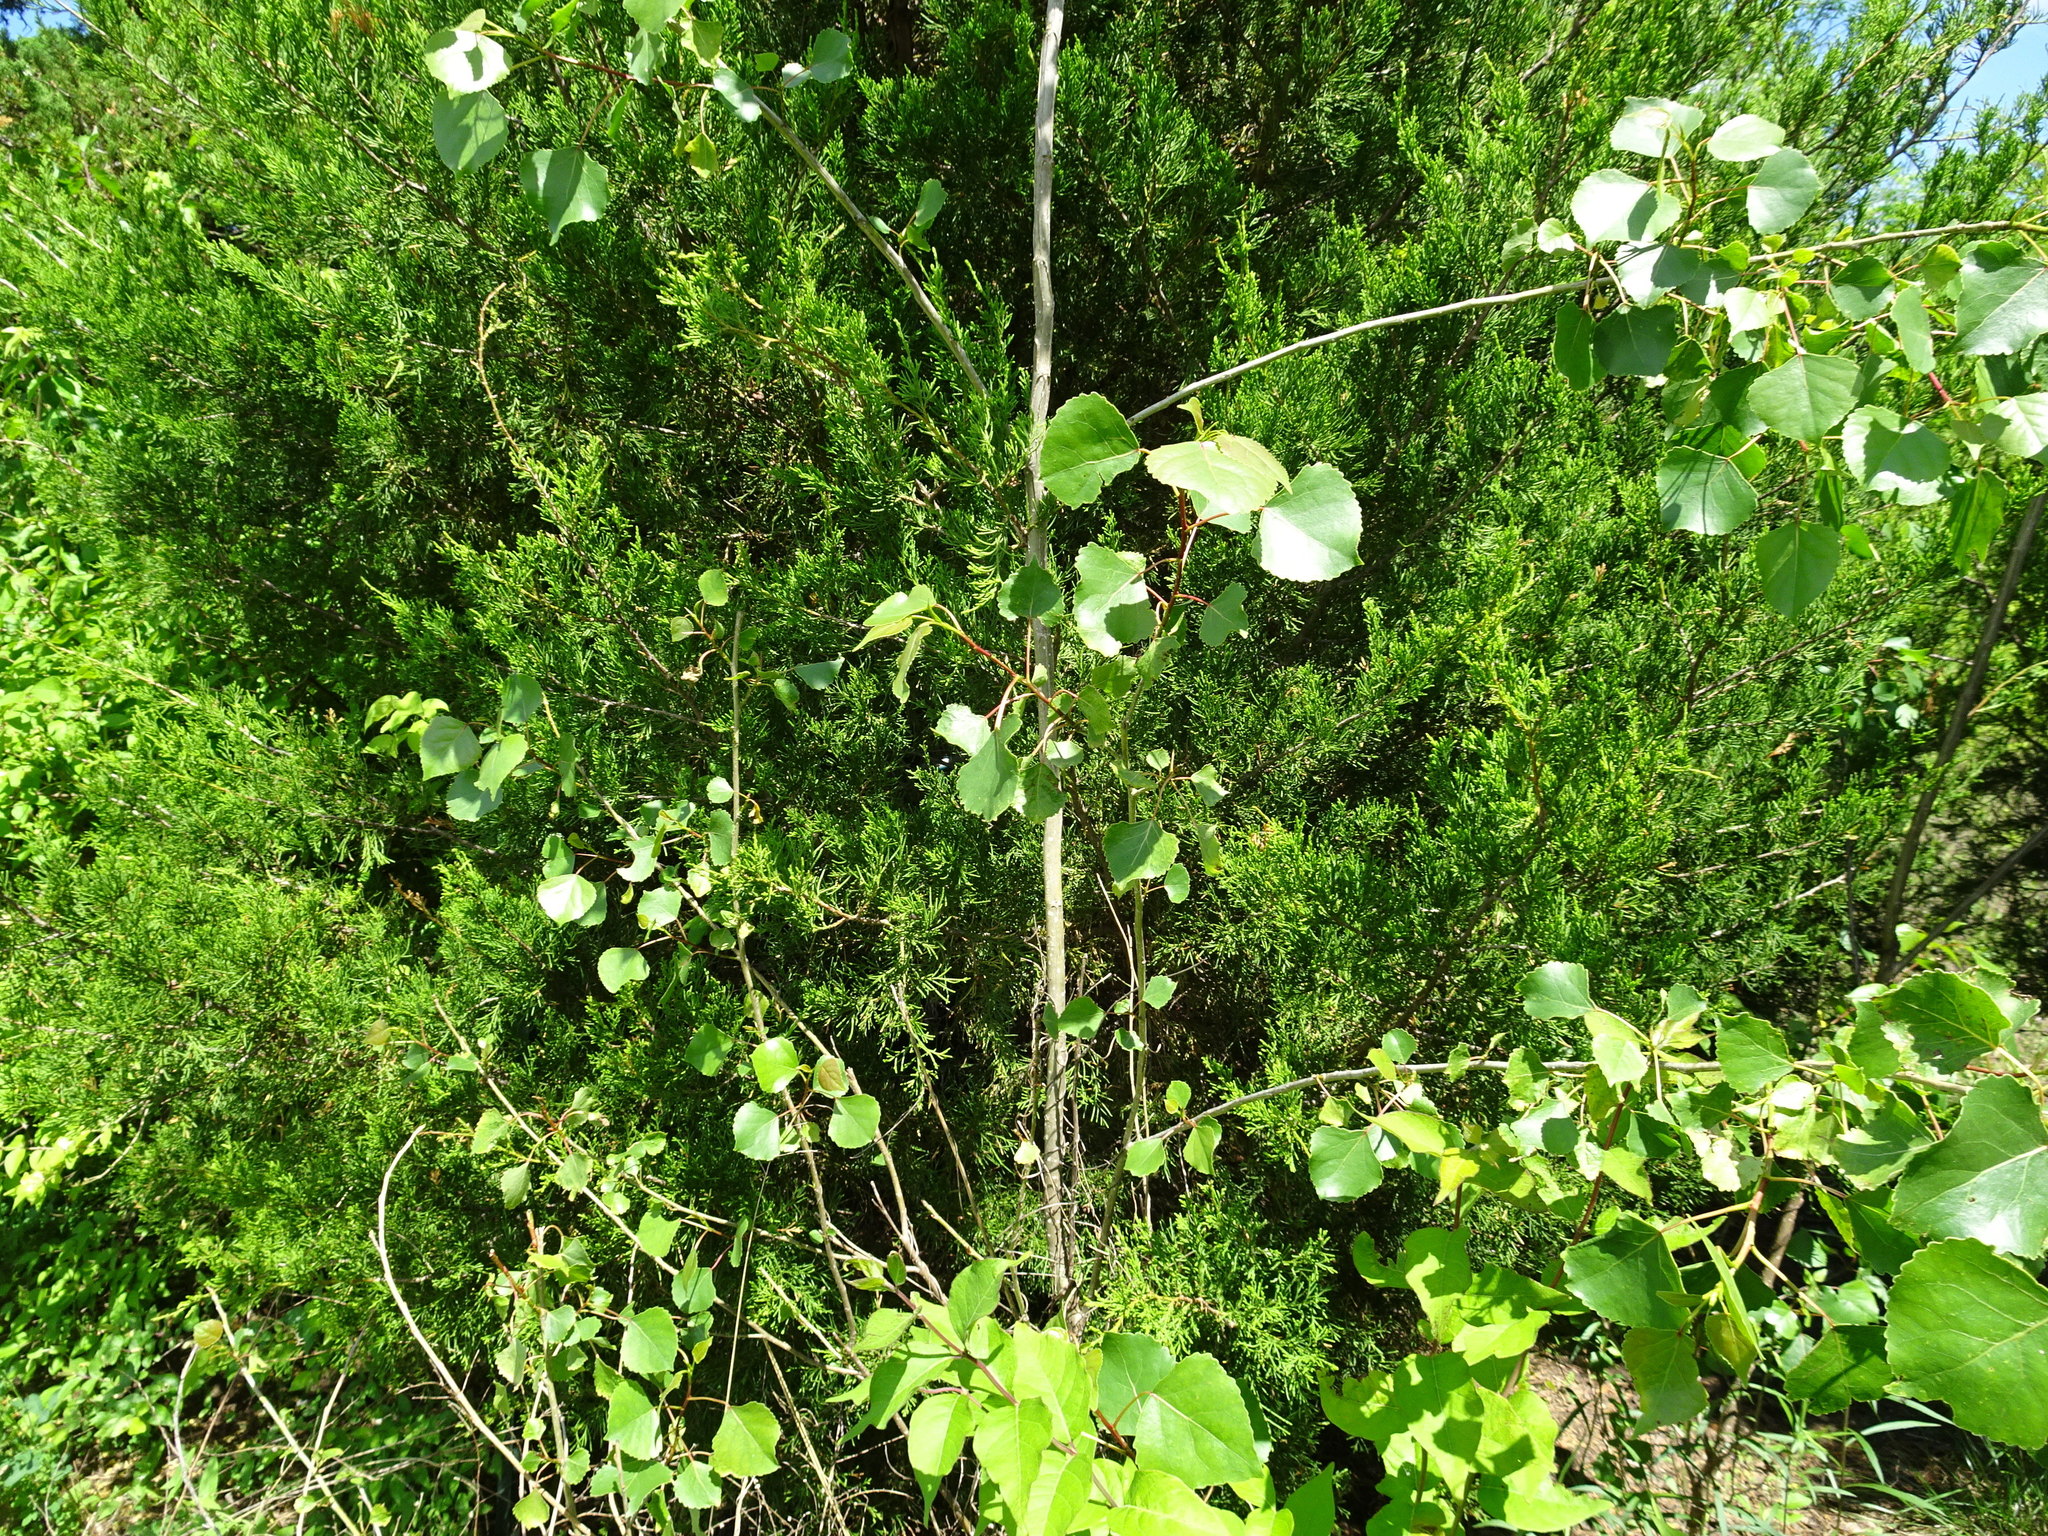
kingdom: Plantae
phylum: Tracheophyta
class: Magnoliopsida
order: Malpighiales
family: Salicaceae
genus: Populus
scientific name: Populus deltoides
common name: Eastern cottonwood
